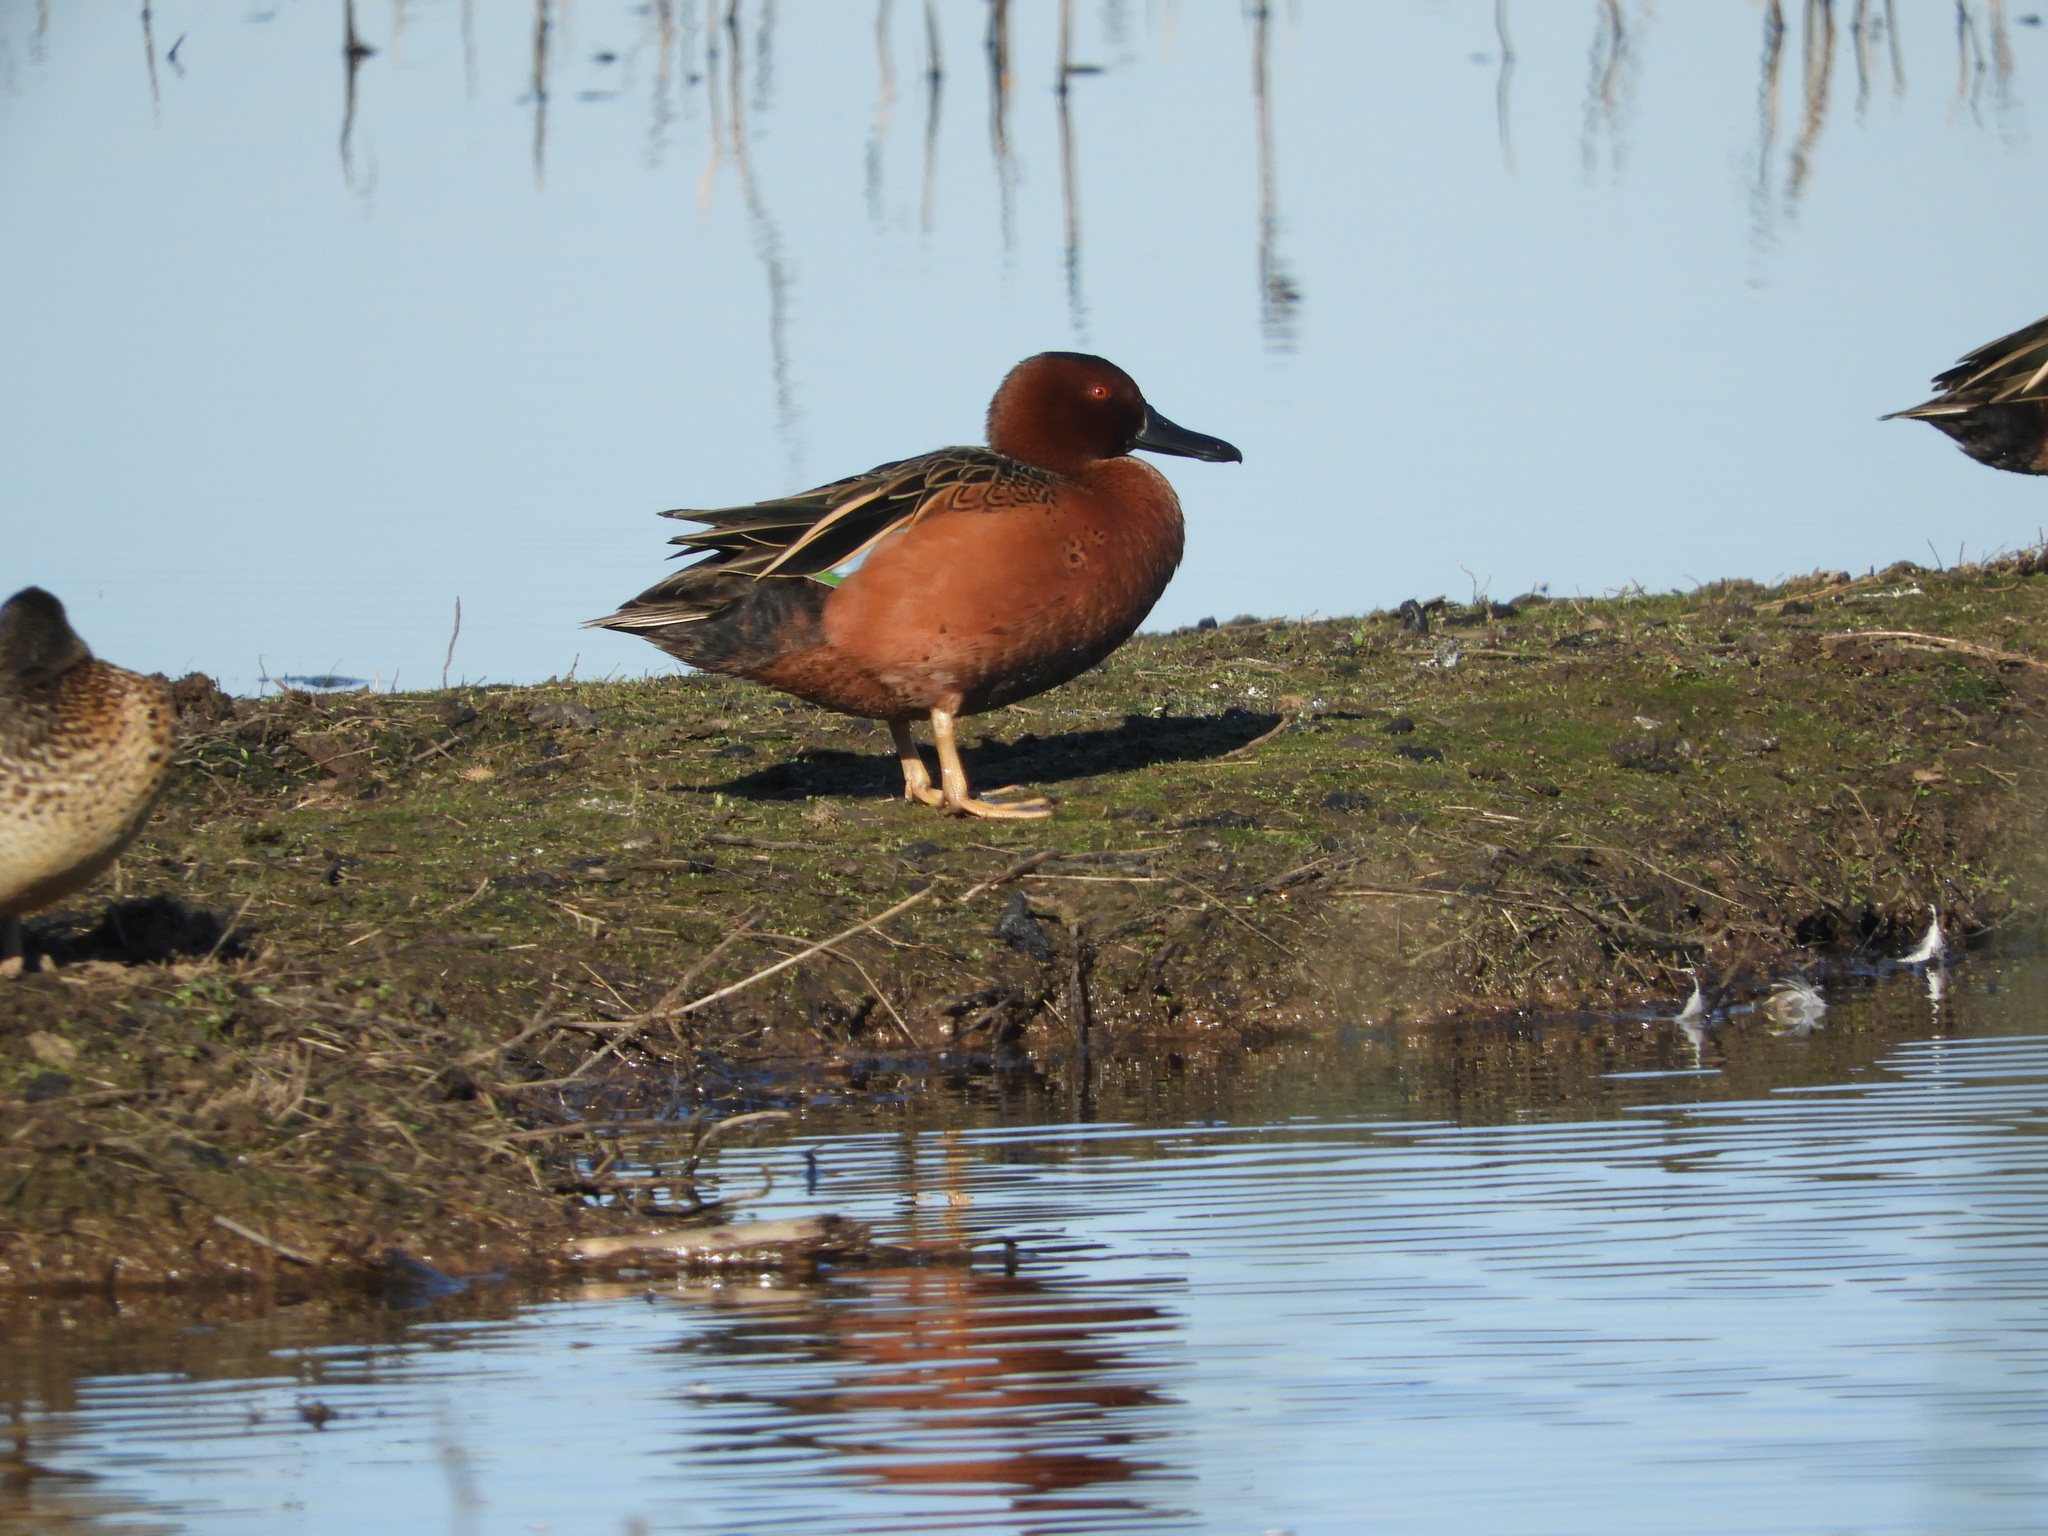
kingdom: Animalia
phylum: Chordata
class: Aves
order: Anseriformes
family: Anatidae
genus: Spatula
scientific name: Spatula cyanoptera
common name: Cinnamon teal
